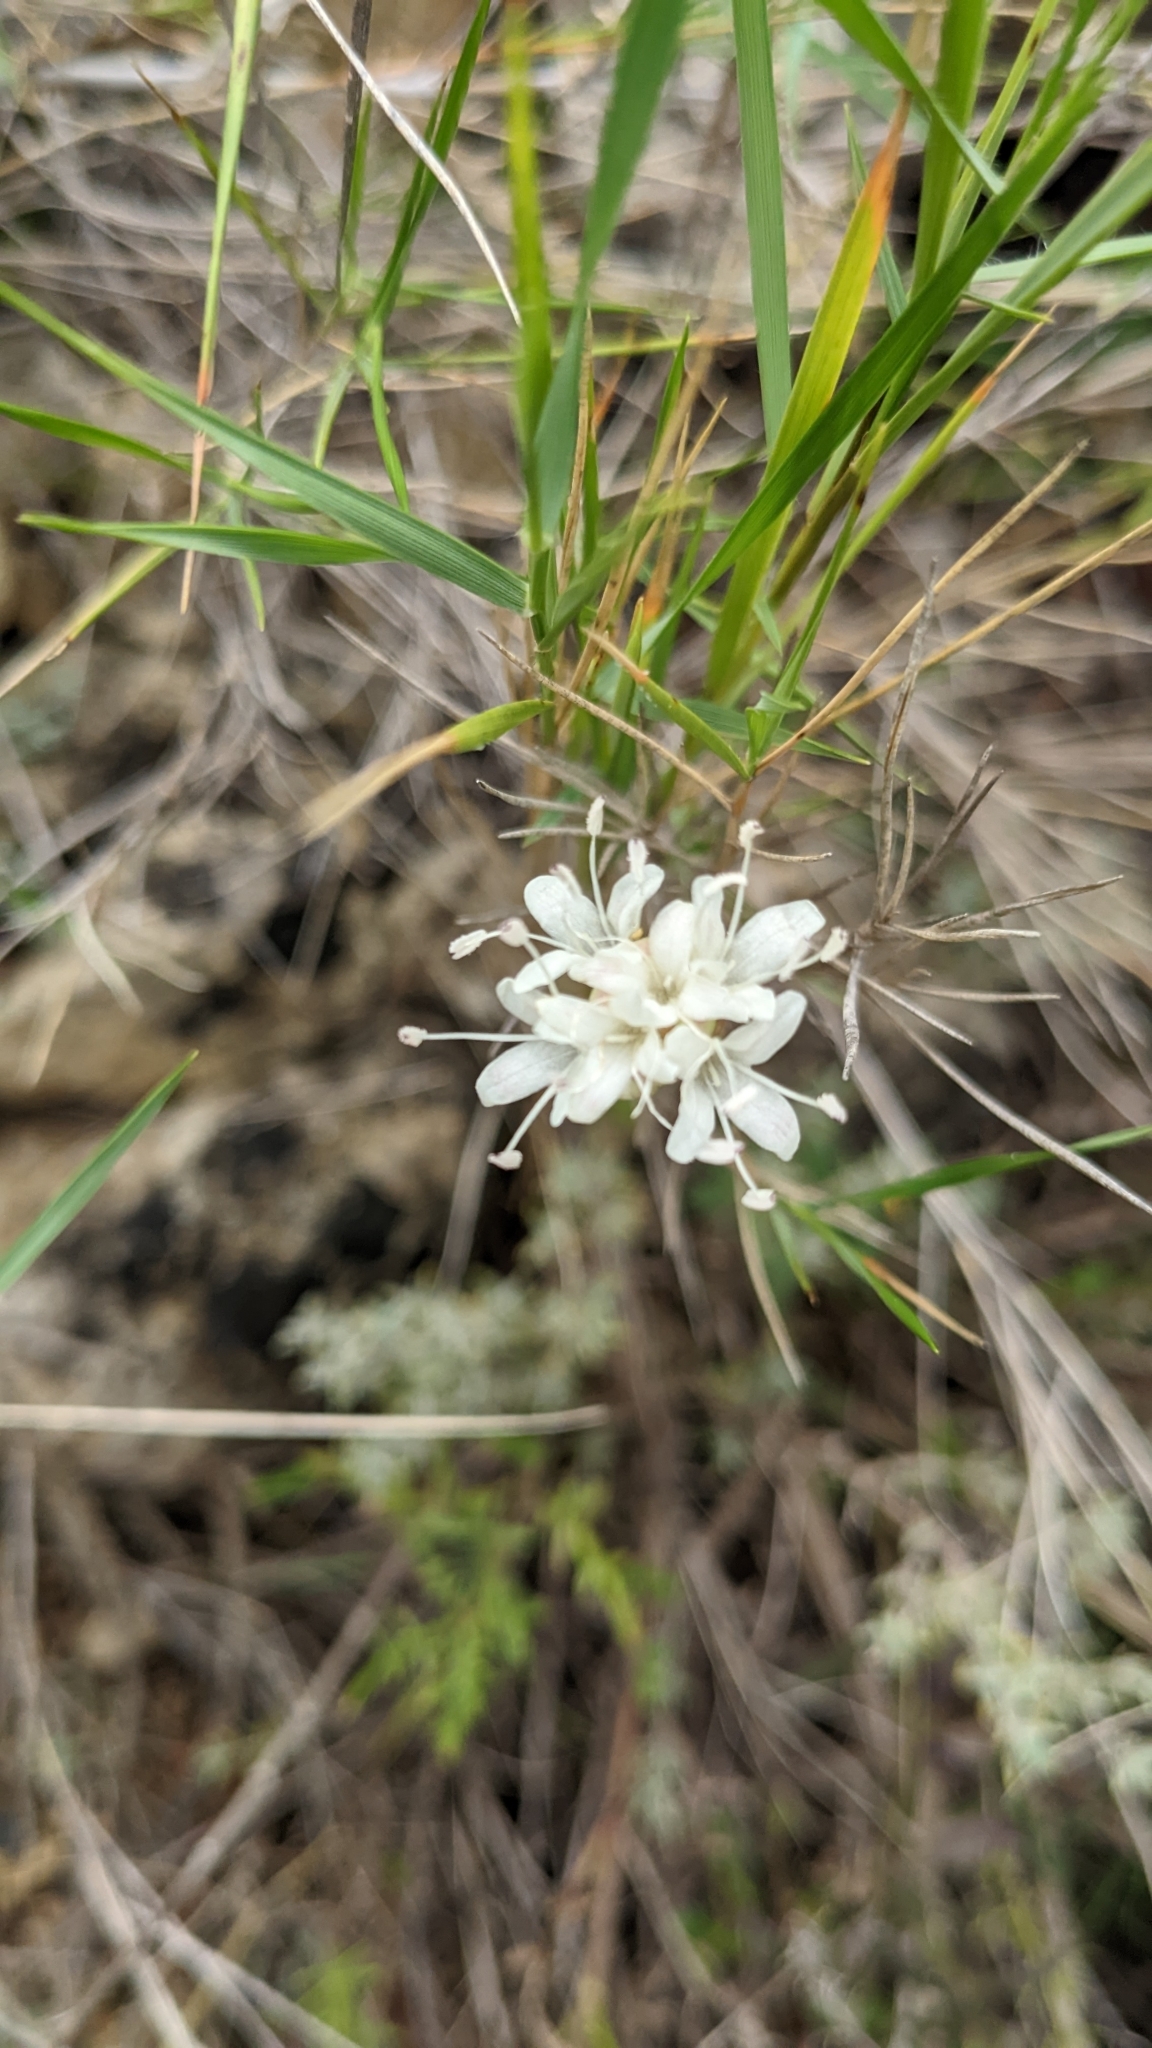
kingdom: Plantae
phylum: Tracheophyta
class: Magnoliopsida
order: Dipsacales
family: Caprifoliaceae
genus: Cephalaria
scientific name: Cephalaria leucantha
